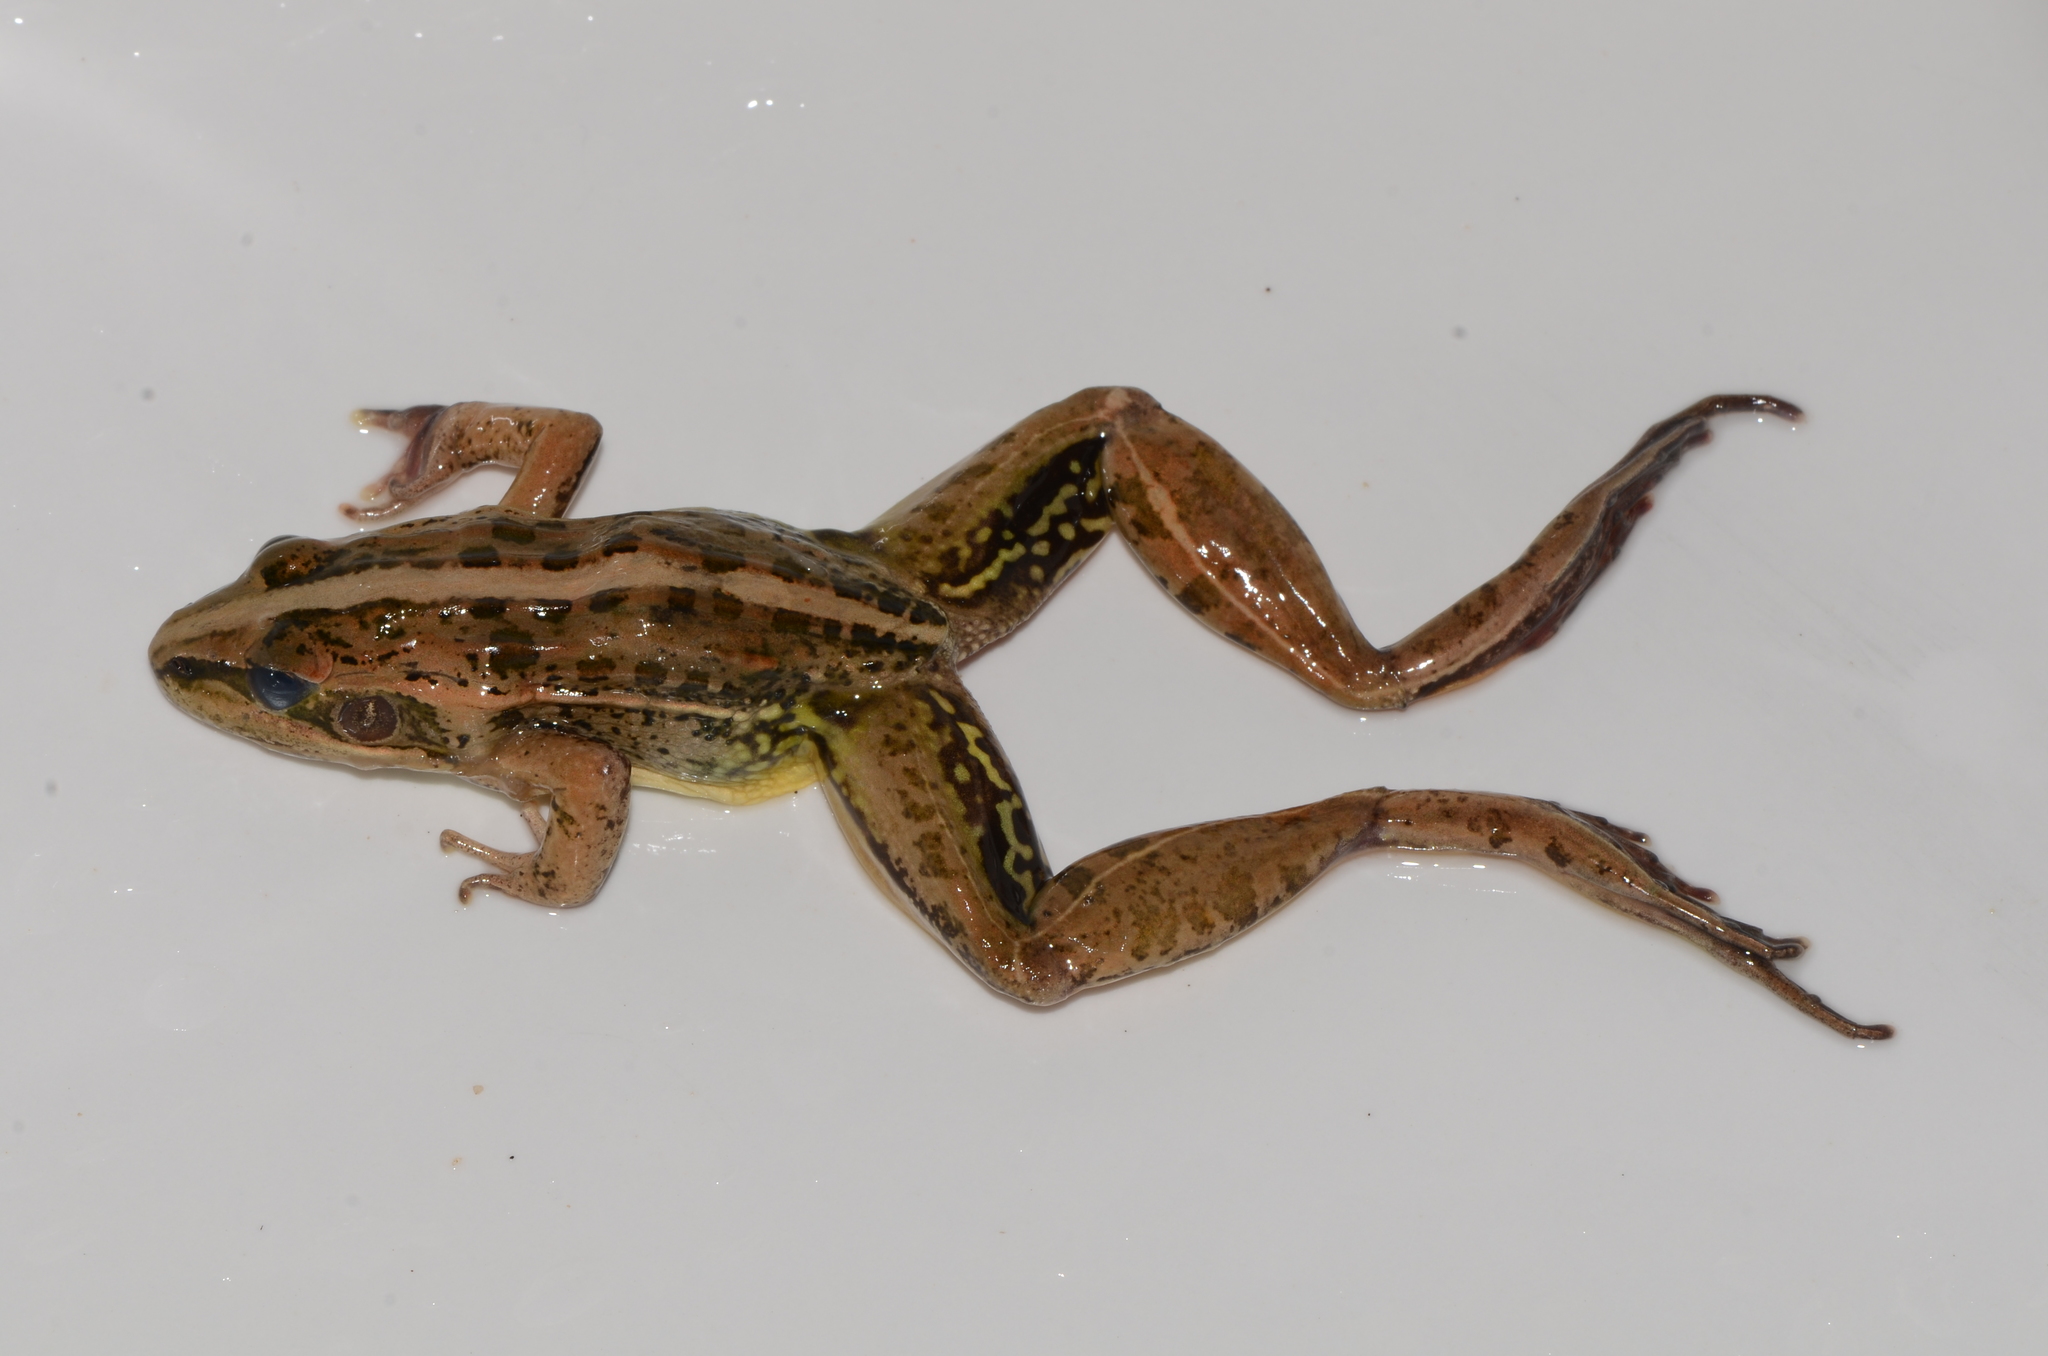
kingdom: Animalia
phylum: Chordata
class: Amphibia
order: Anura
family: Ptychadenidae
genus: Ptychadena
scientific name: Ptychadena nilotica
